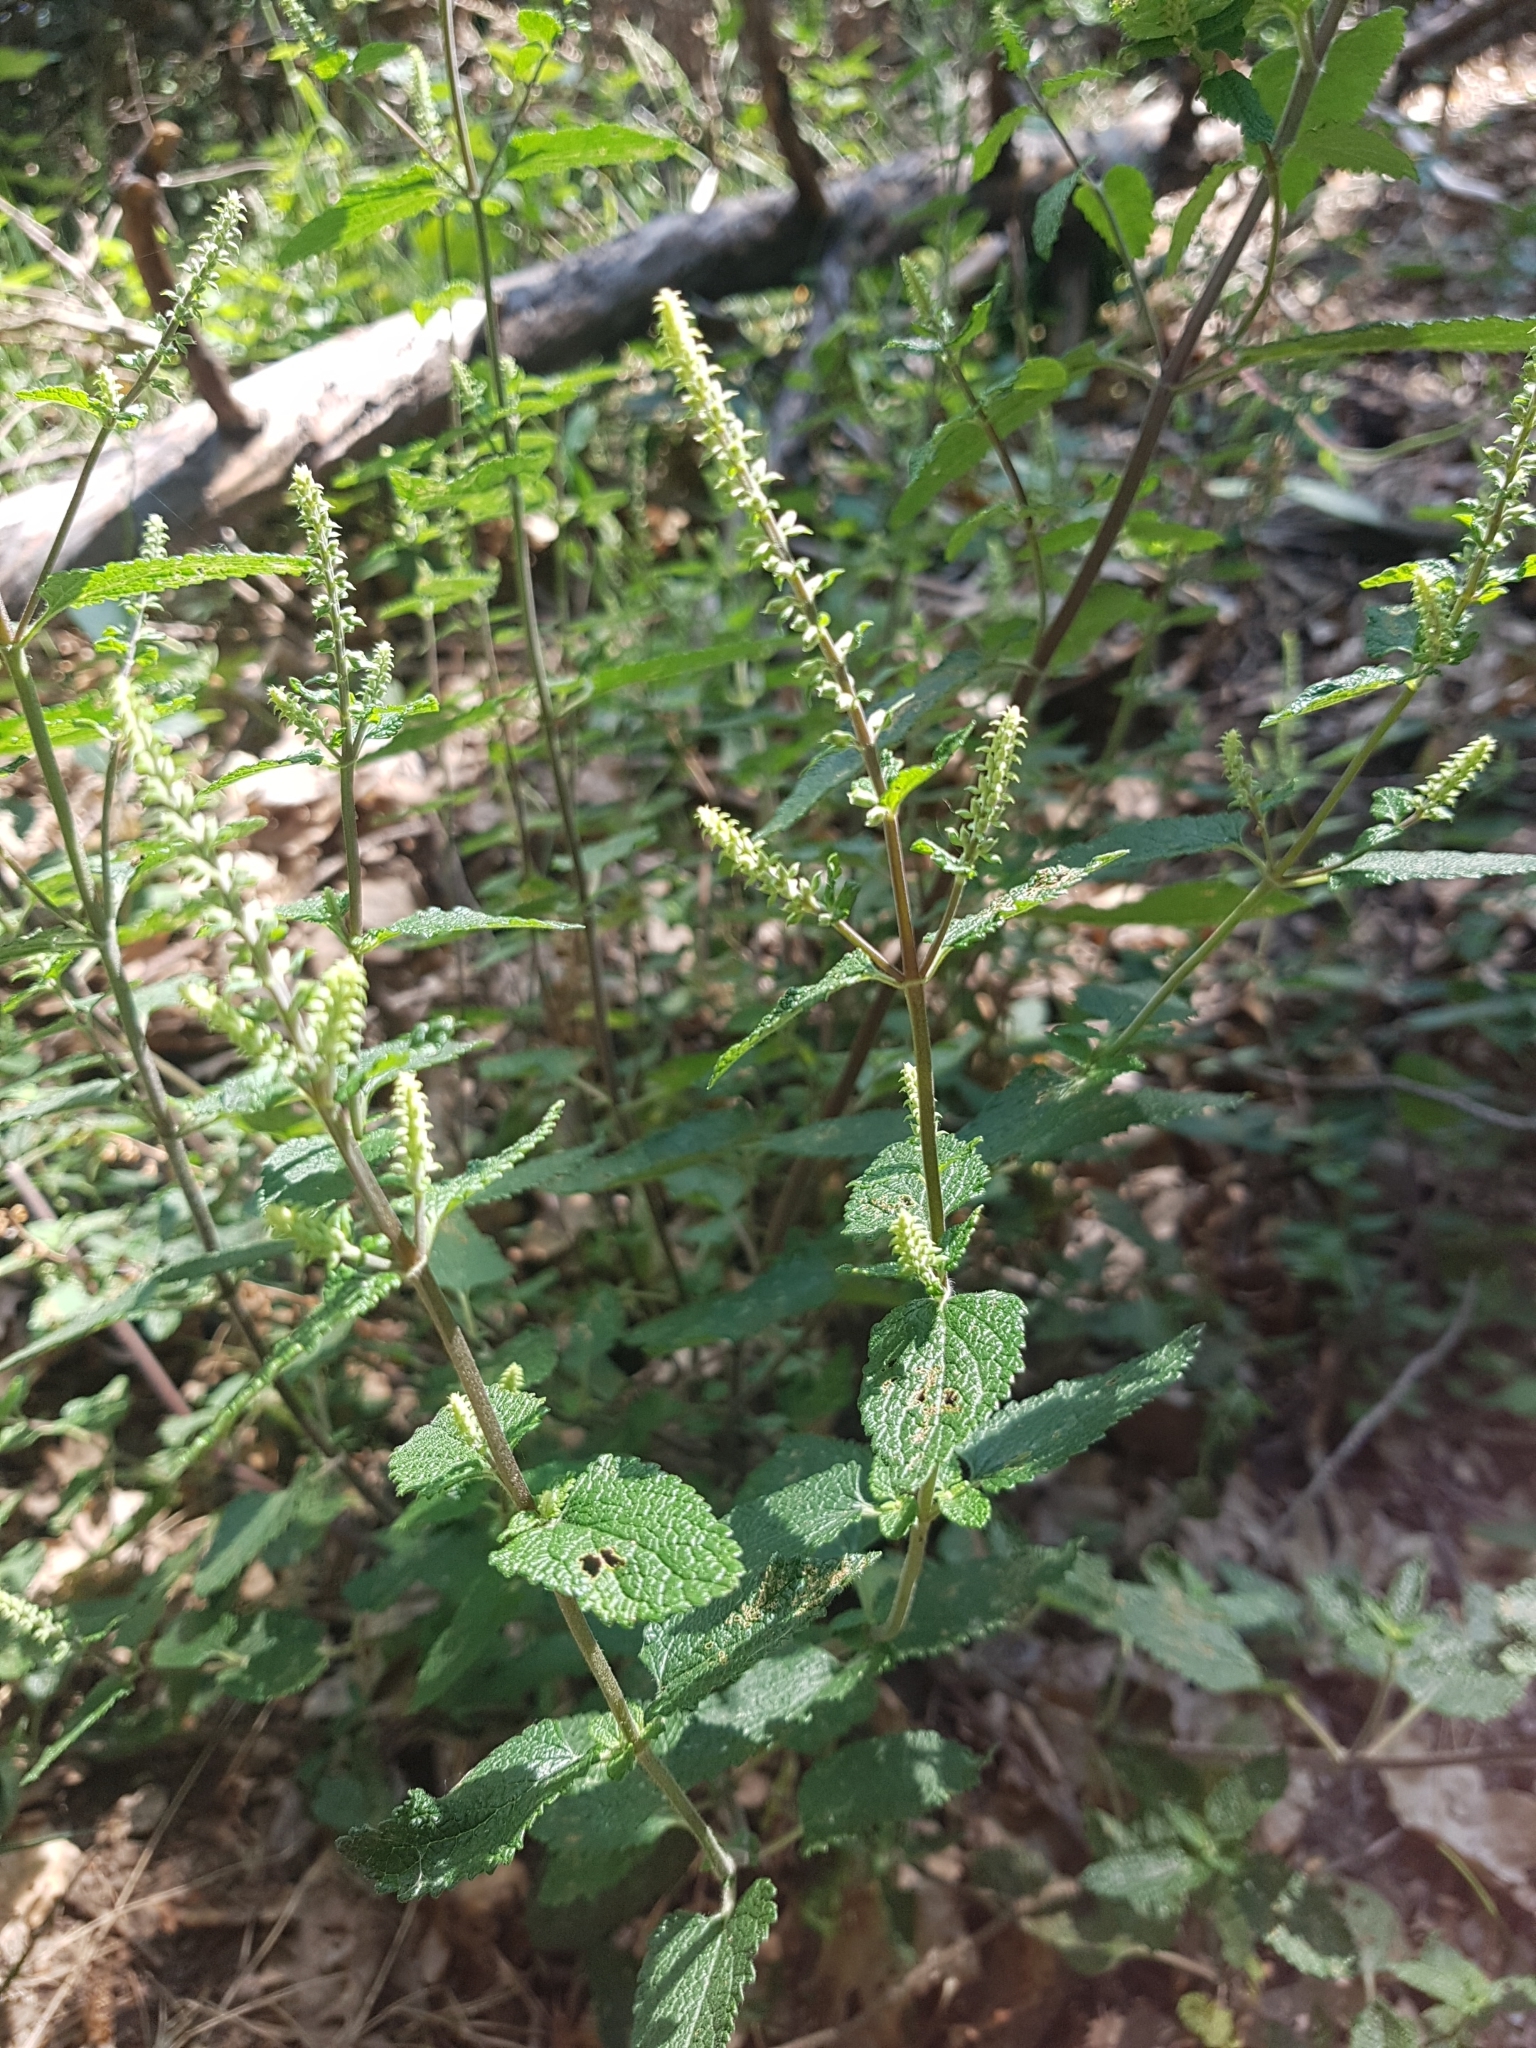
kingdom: Plantae
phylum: Tracheophyta
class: Magnoliopsida
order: Lamiales
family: Lamiaceae
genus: Teucrium
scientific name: Teucrium scorodonia
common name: Woodland germander
